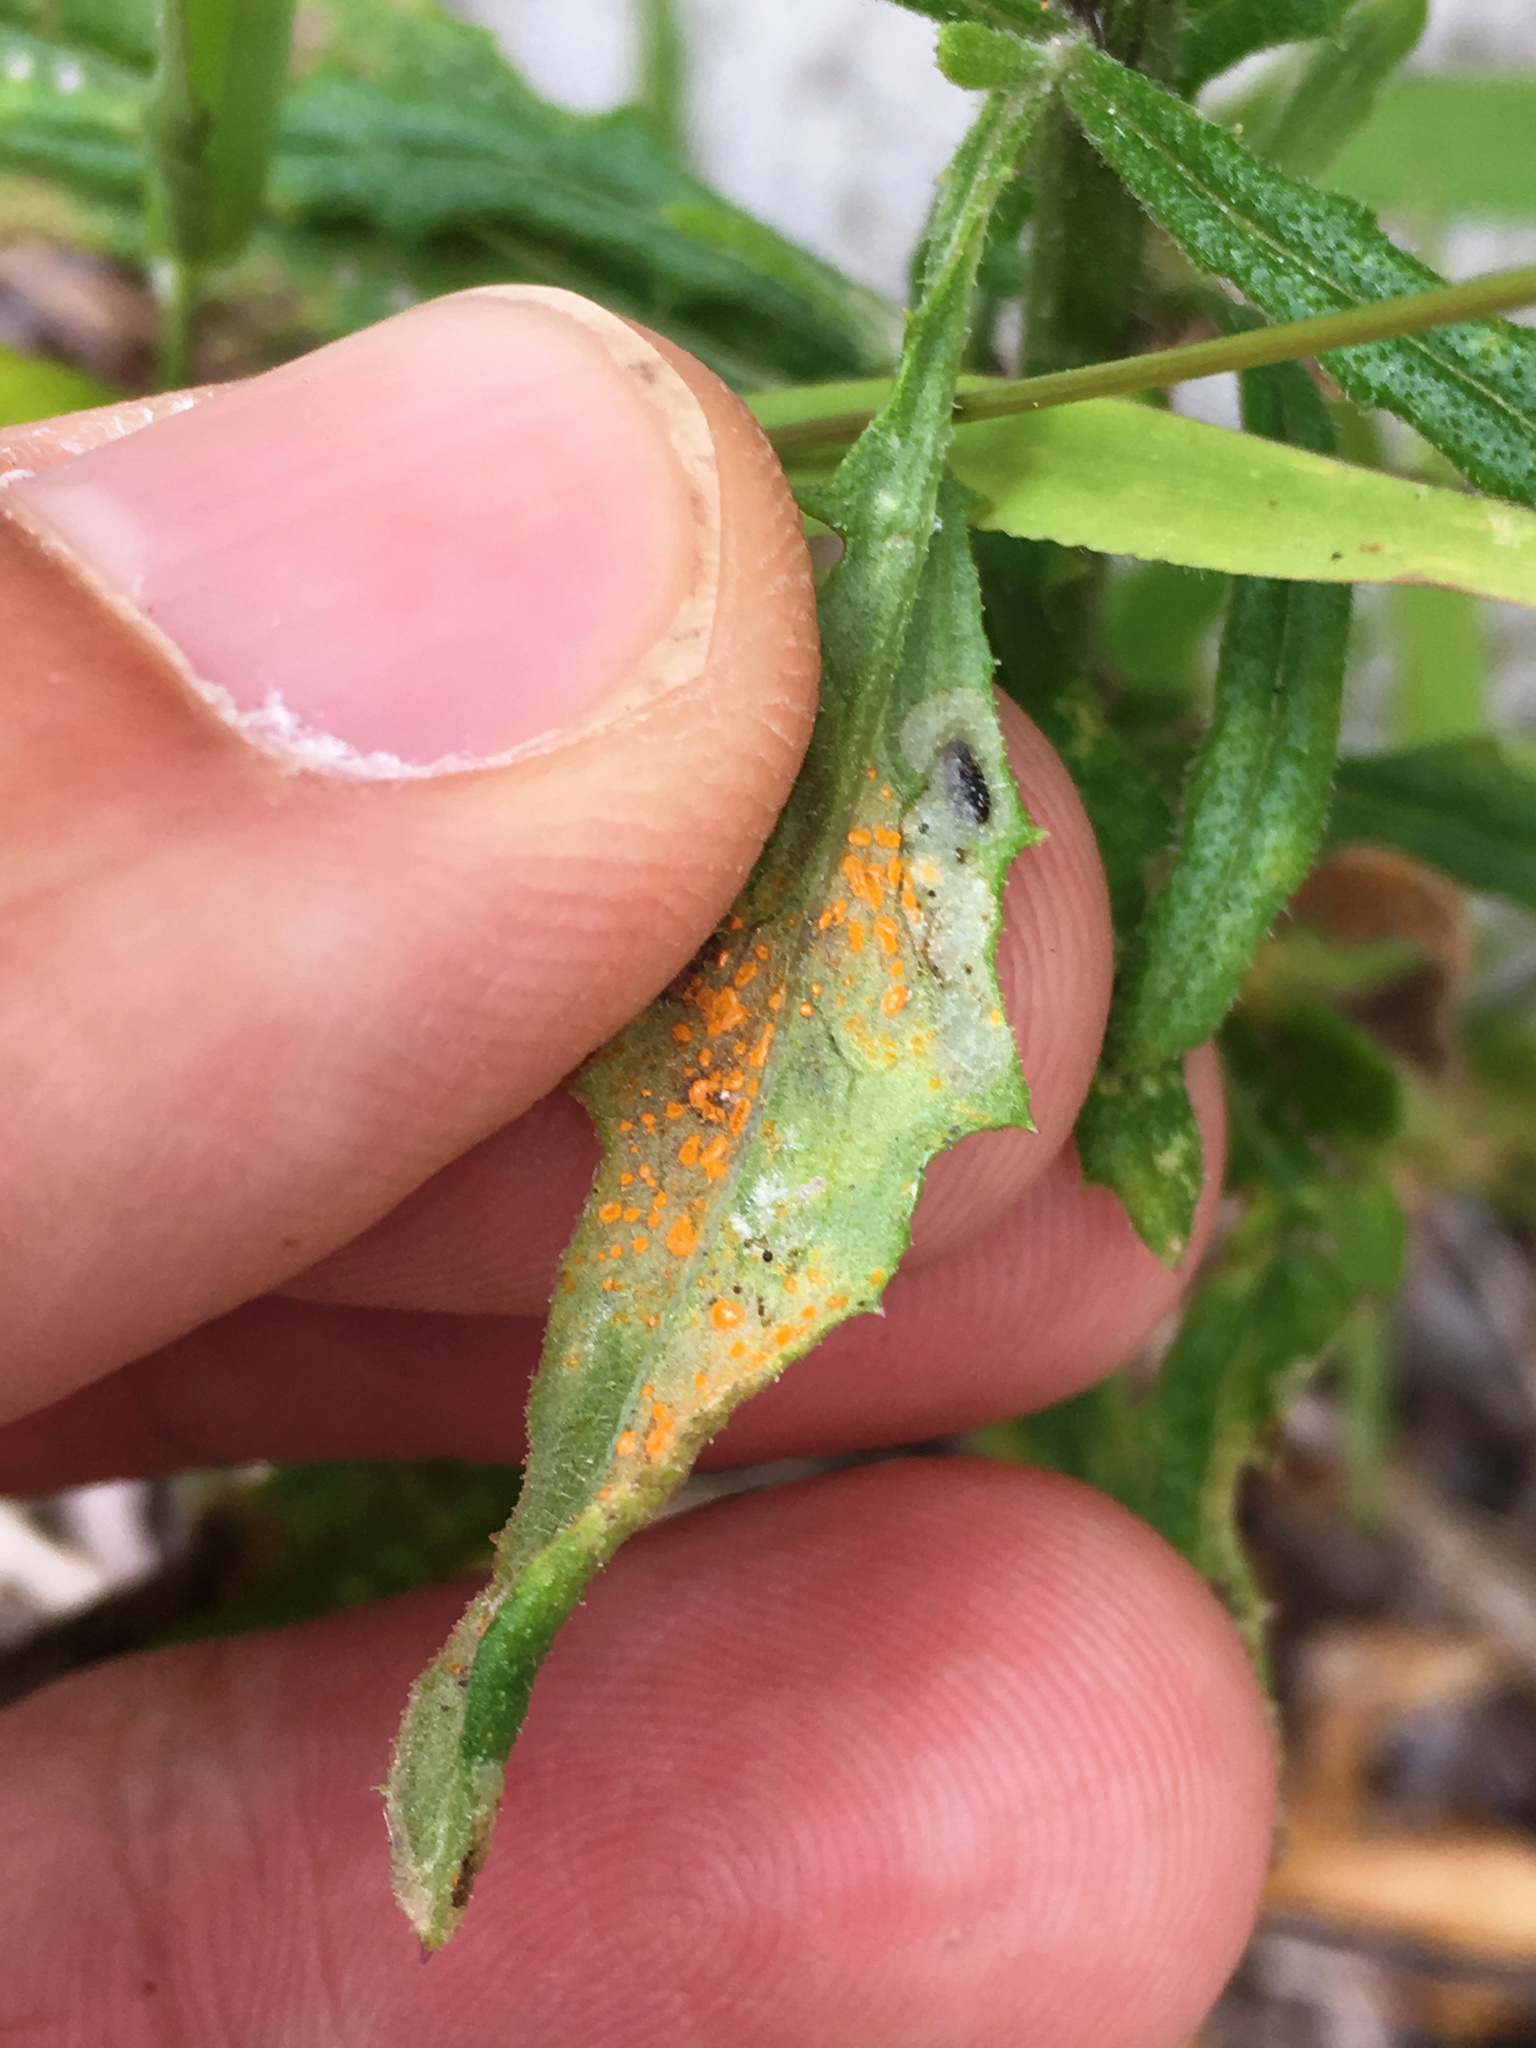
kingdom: Fungi
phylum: Basidiomycota
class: Pucciniomycetes
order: Pucciniales
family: Coleosporiaceae
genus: Coleosporium
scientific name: Coleosporium tussilaginis
